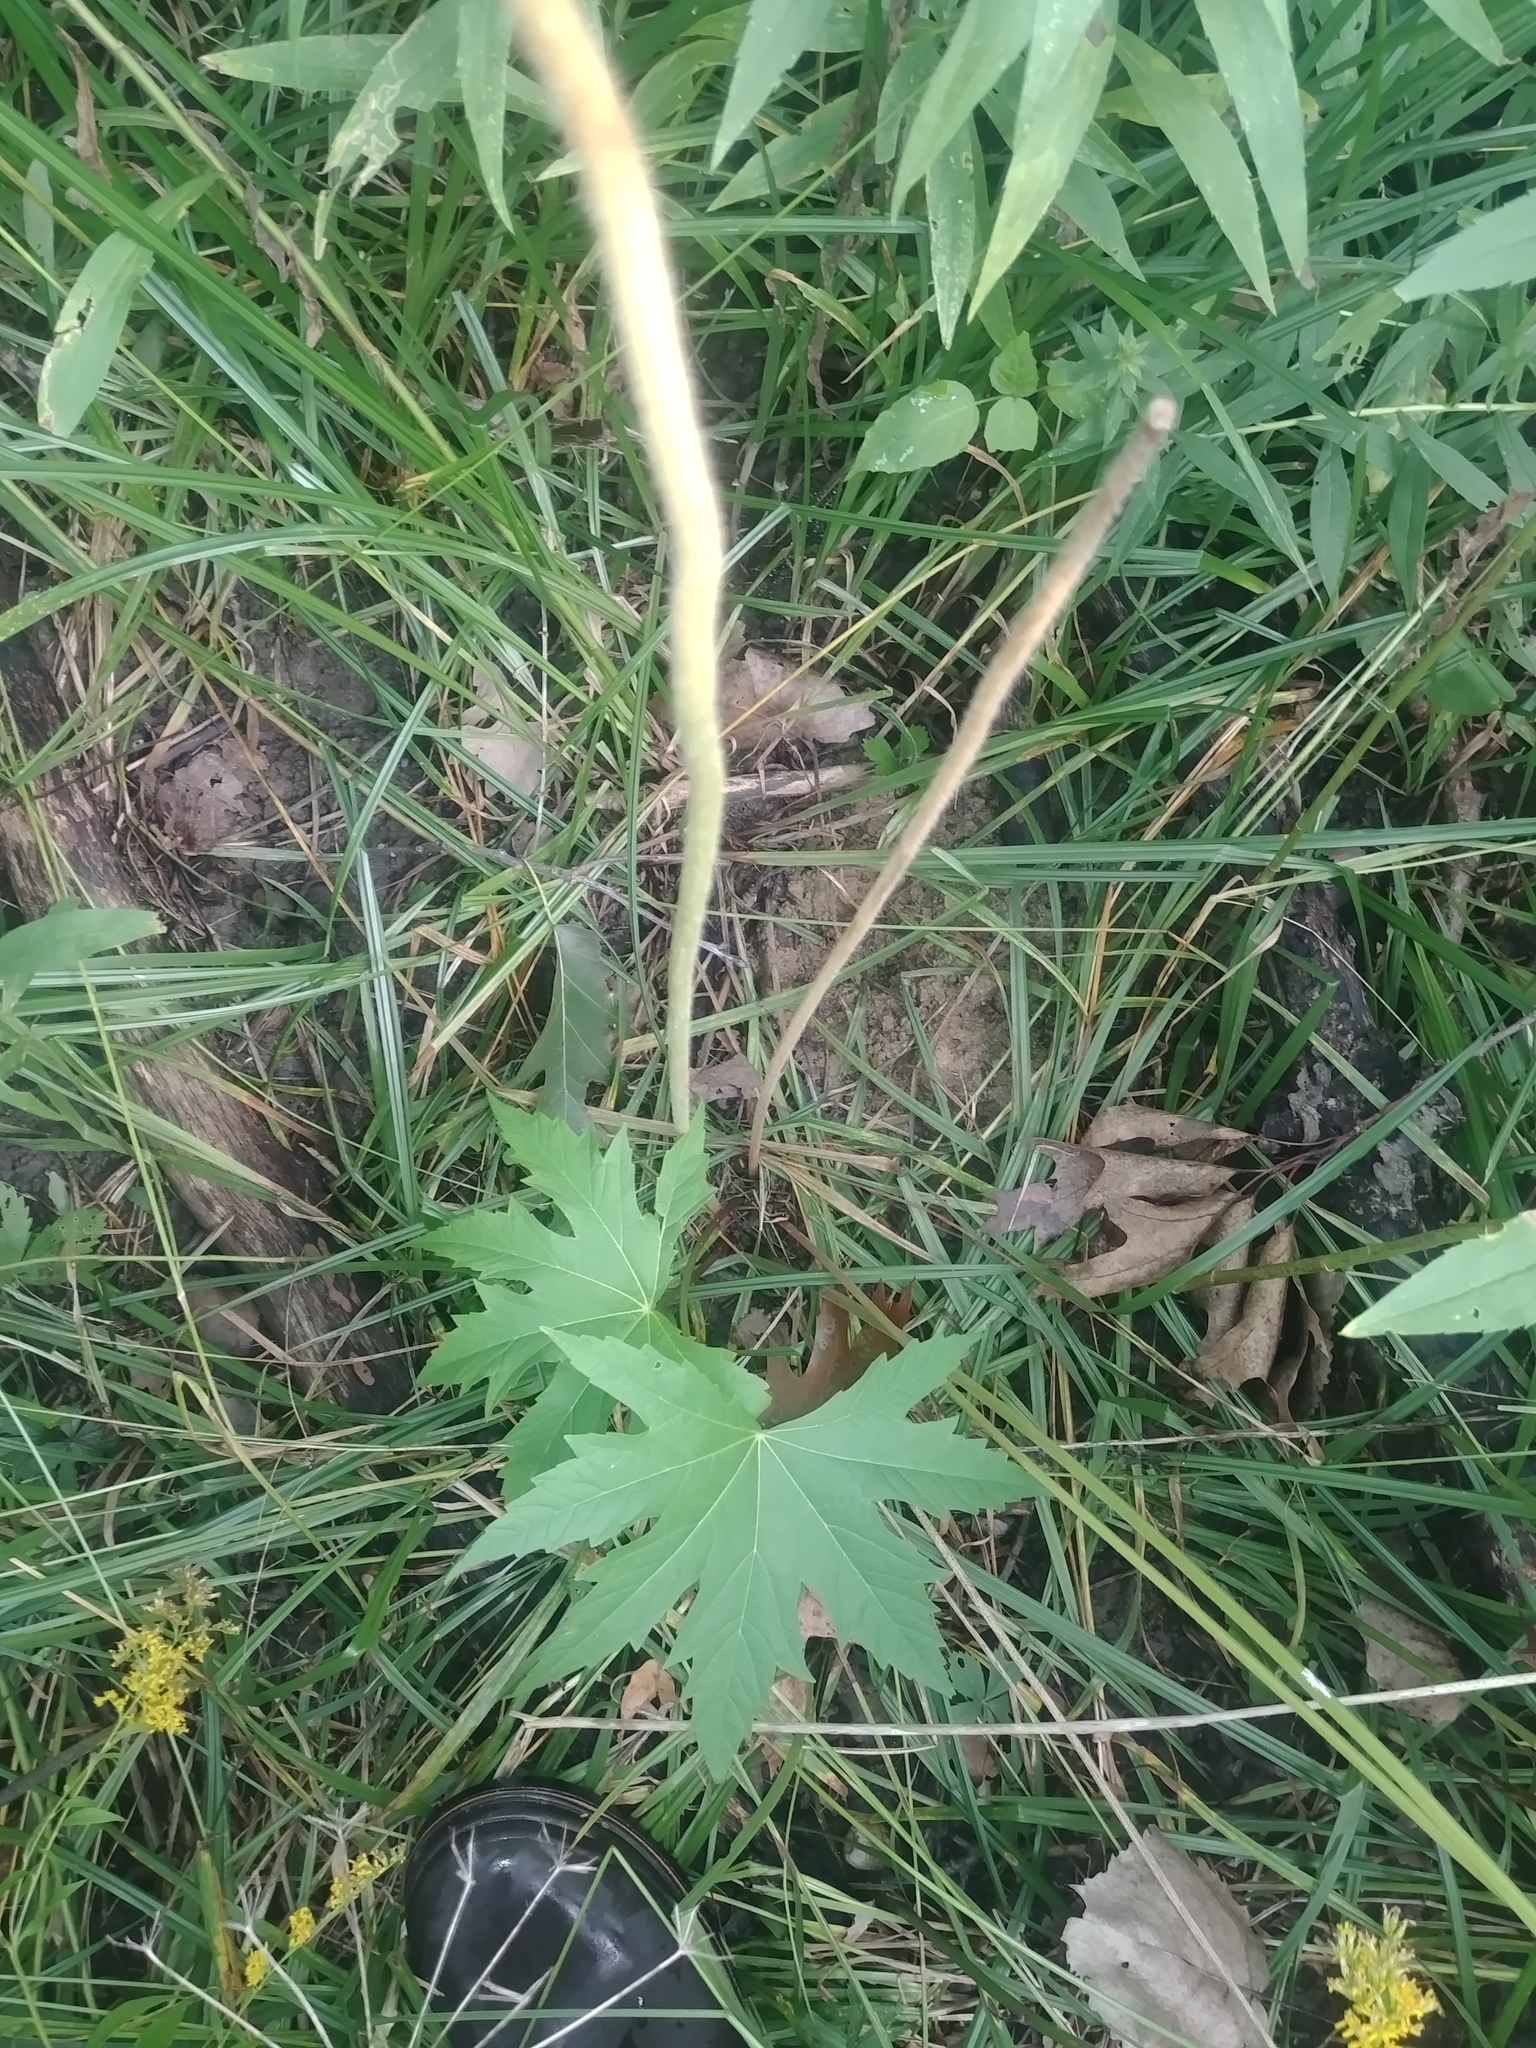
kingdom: Plantae
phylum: Tracheophyta
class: Magnoliopsida
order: Malvales
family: Malvaceae
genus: Napaea
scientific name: Napaea dioica
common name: Glade-mallow
